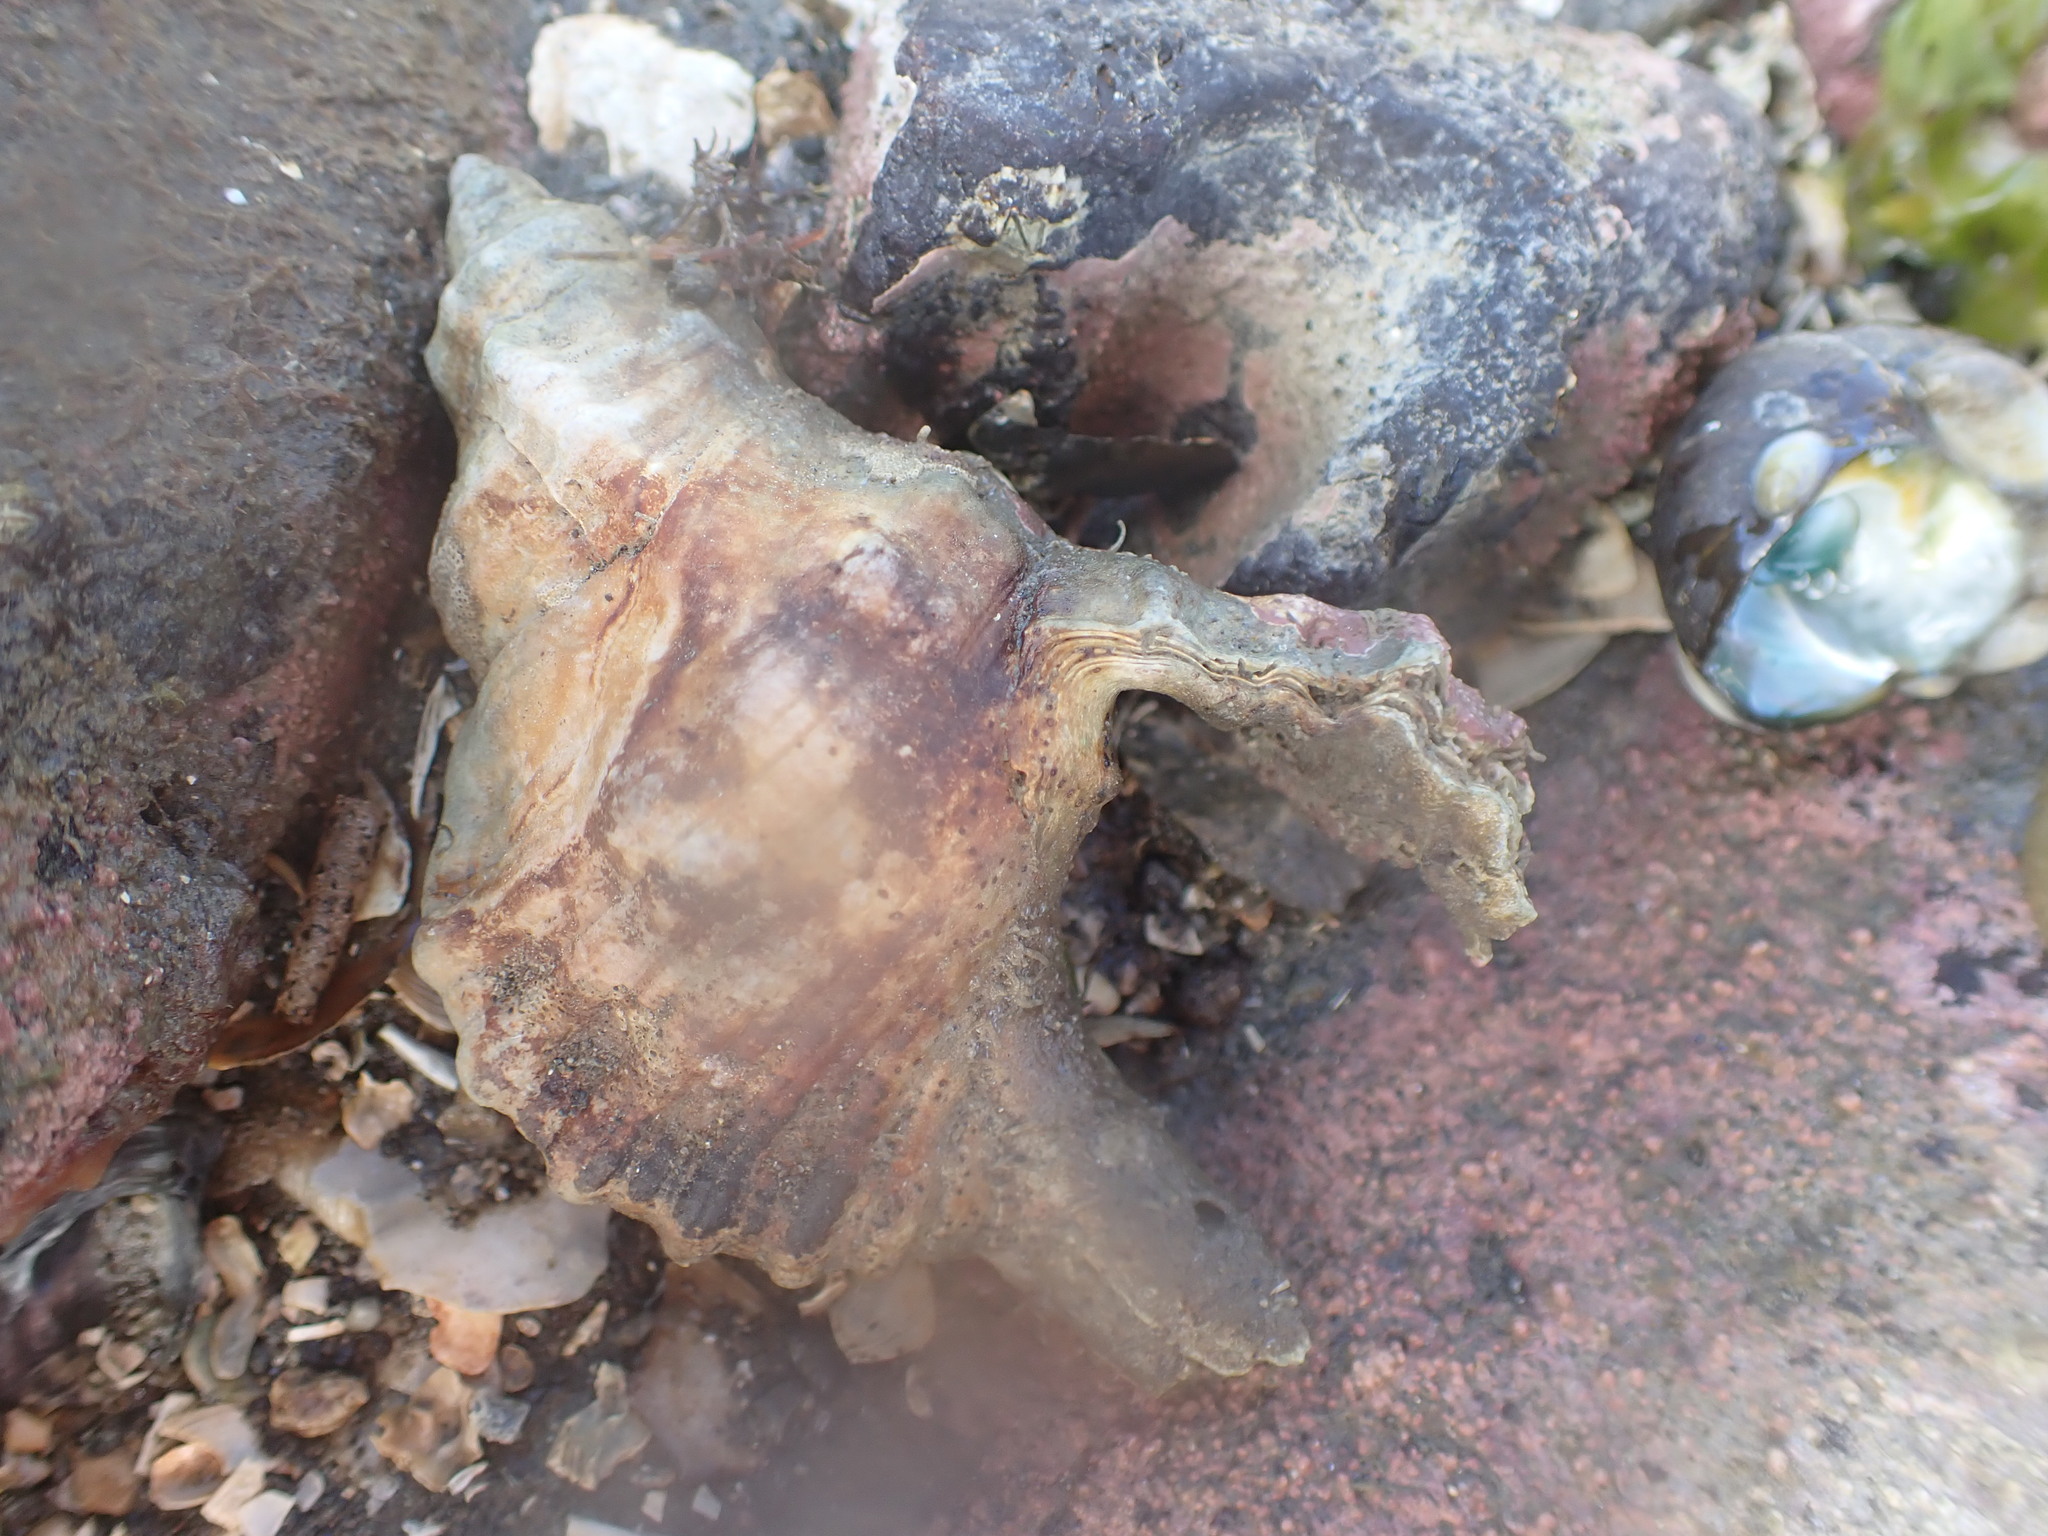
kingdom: Animalia
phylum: Mollusca
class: Gastropoda
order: Littorinimorpha
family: Cymatiidae
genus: Cabestana
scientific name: Cabestana spengleri
